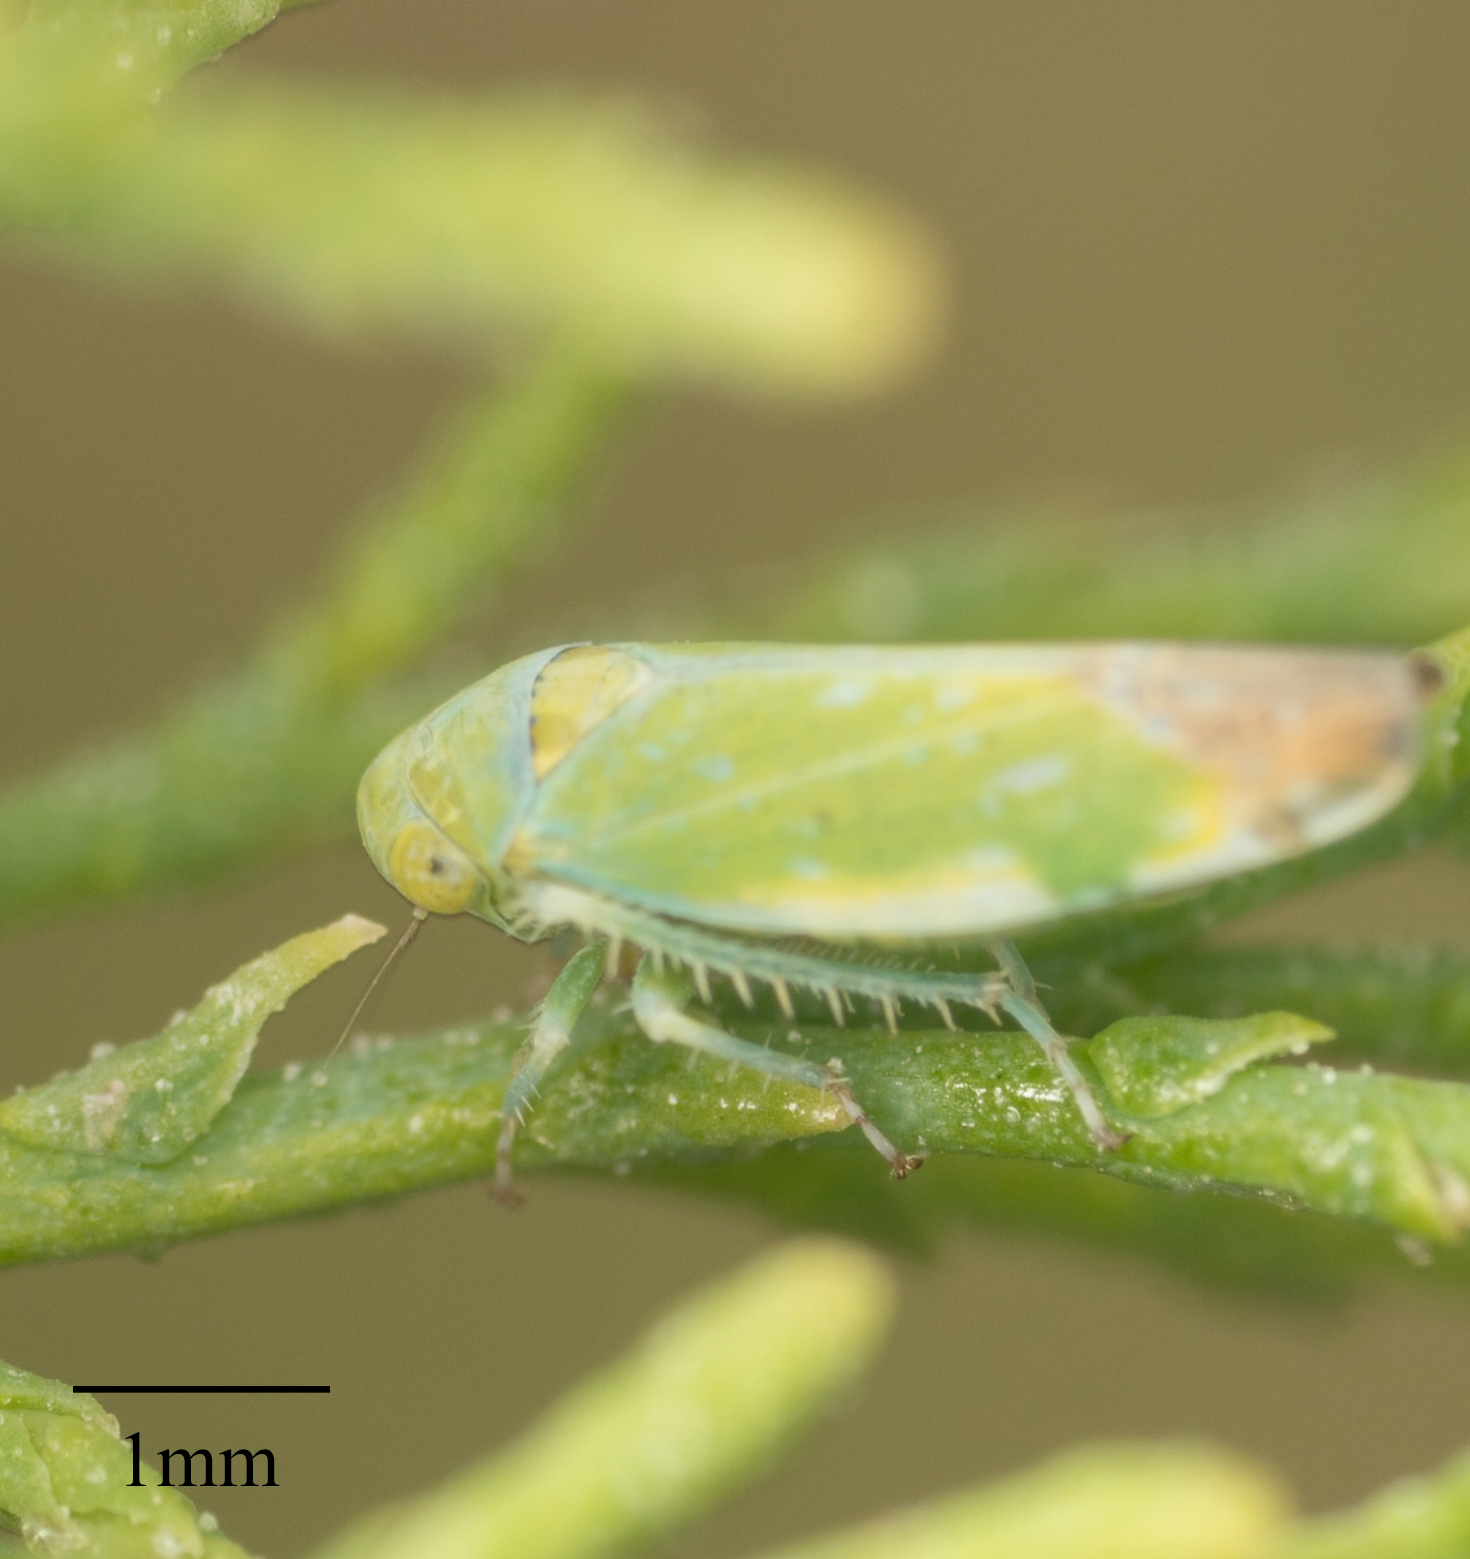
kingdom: Animalia
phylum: Arthropoda
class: Insecta
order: Hemiptera
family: Cicadellidae
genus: Opsius
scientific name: Opsius stactogalus
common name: Leafhopper
